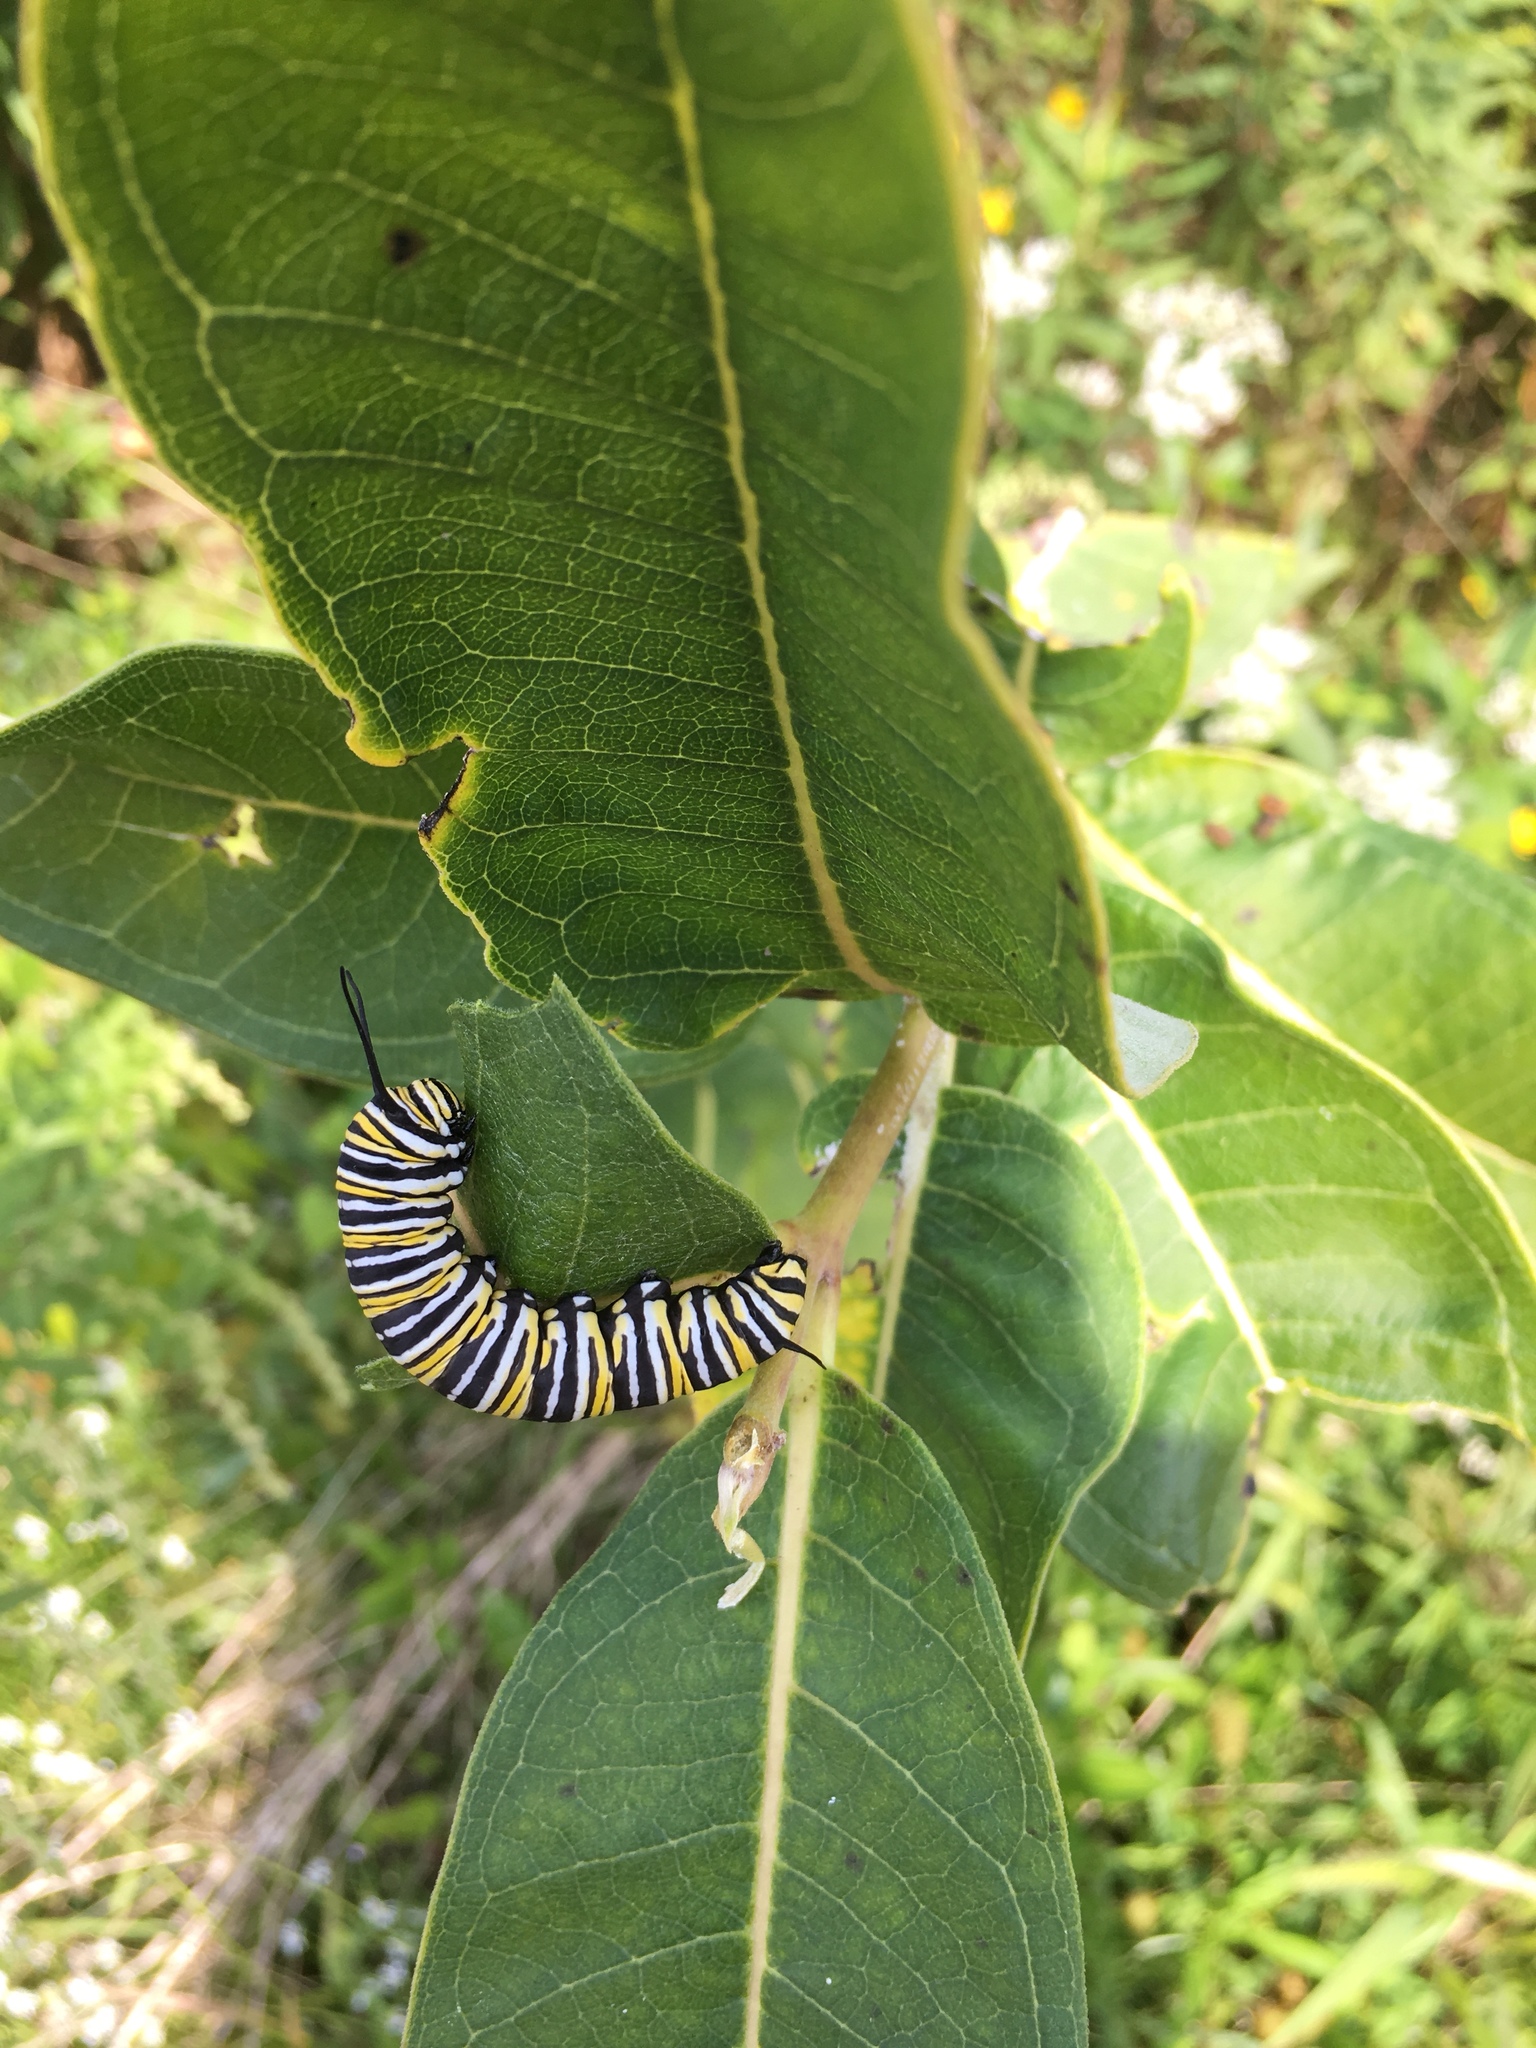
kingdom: Animalia
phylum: Arthropoda
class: Insecta
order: Lepidoptera
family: Nymphalidae
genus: Danaus
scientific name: Danaus plexippus
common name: Monarch
